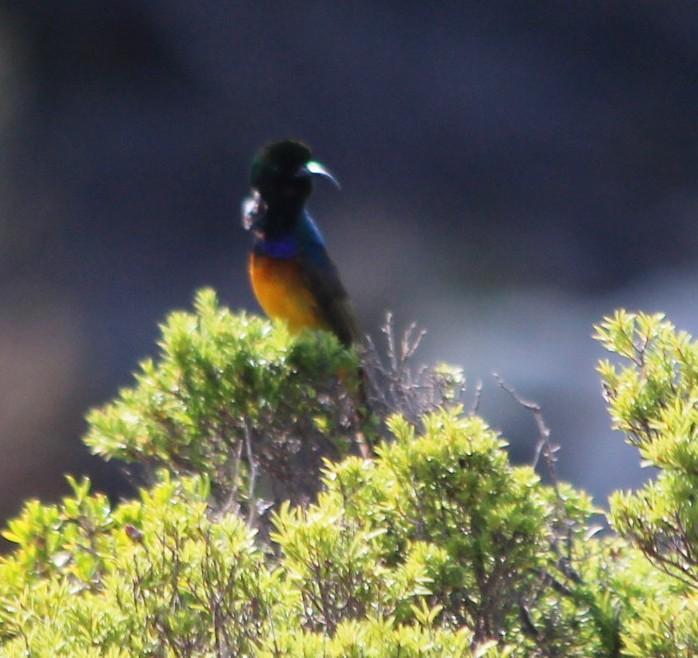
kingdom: Animalia
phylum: Chordata
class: Aves
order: Passeriformes
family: Nectariniidae
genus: Anthobaphes
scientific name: Anthobaphes violacea
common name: Orange-breasted sunbird
